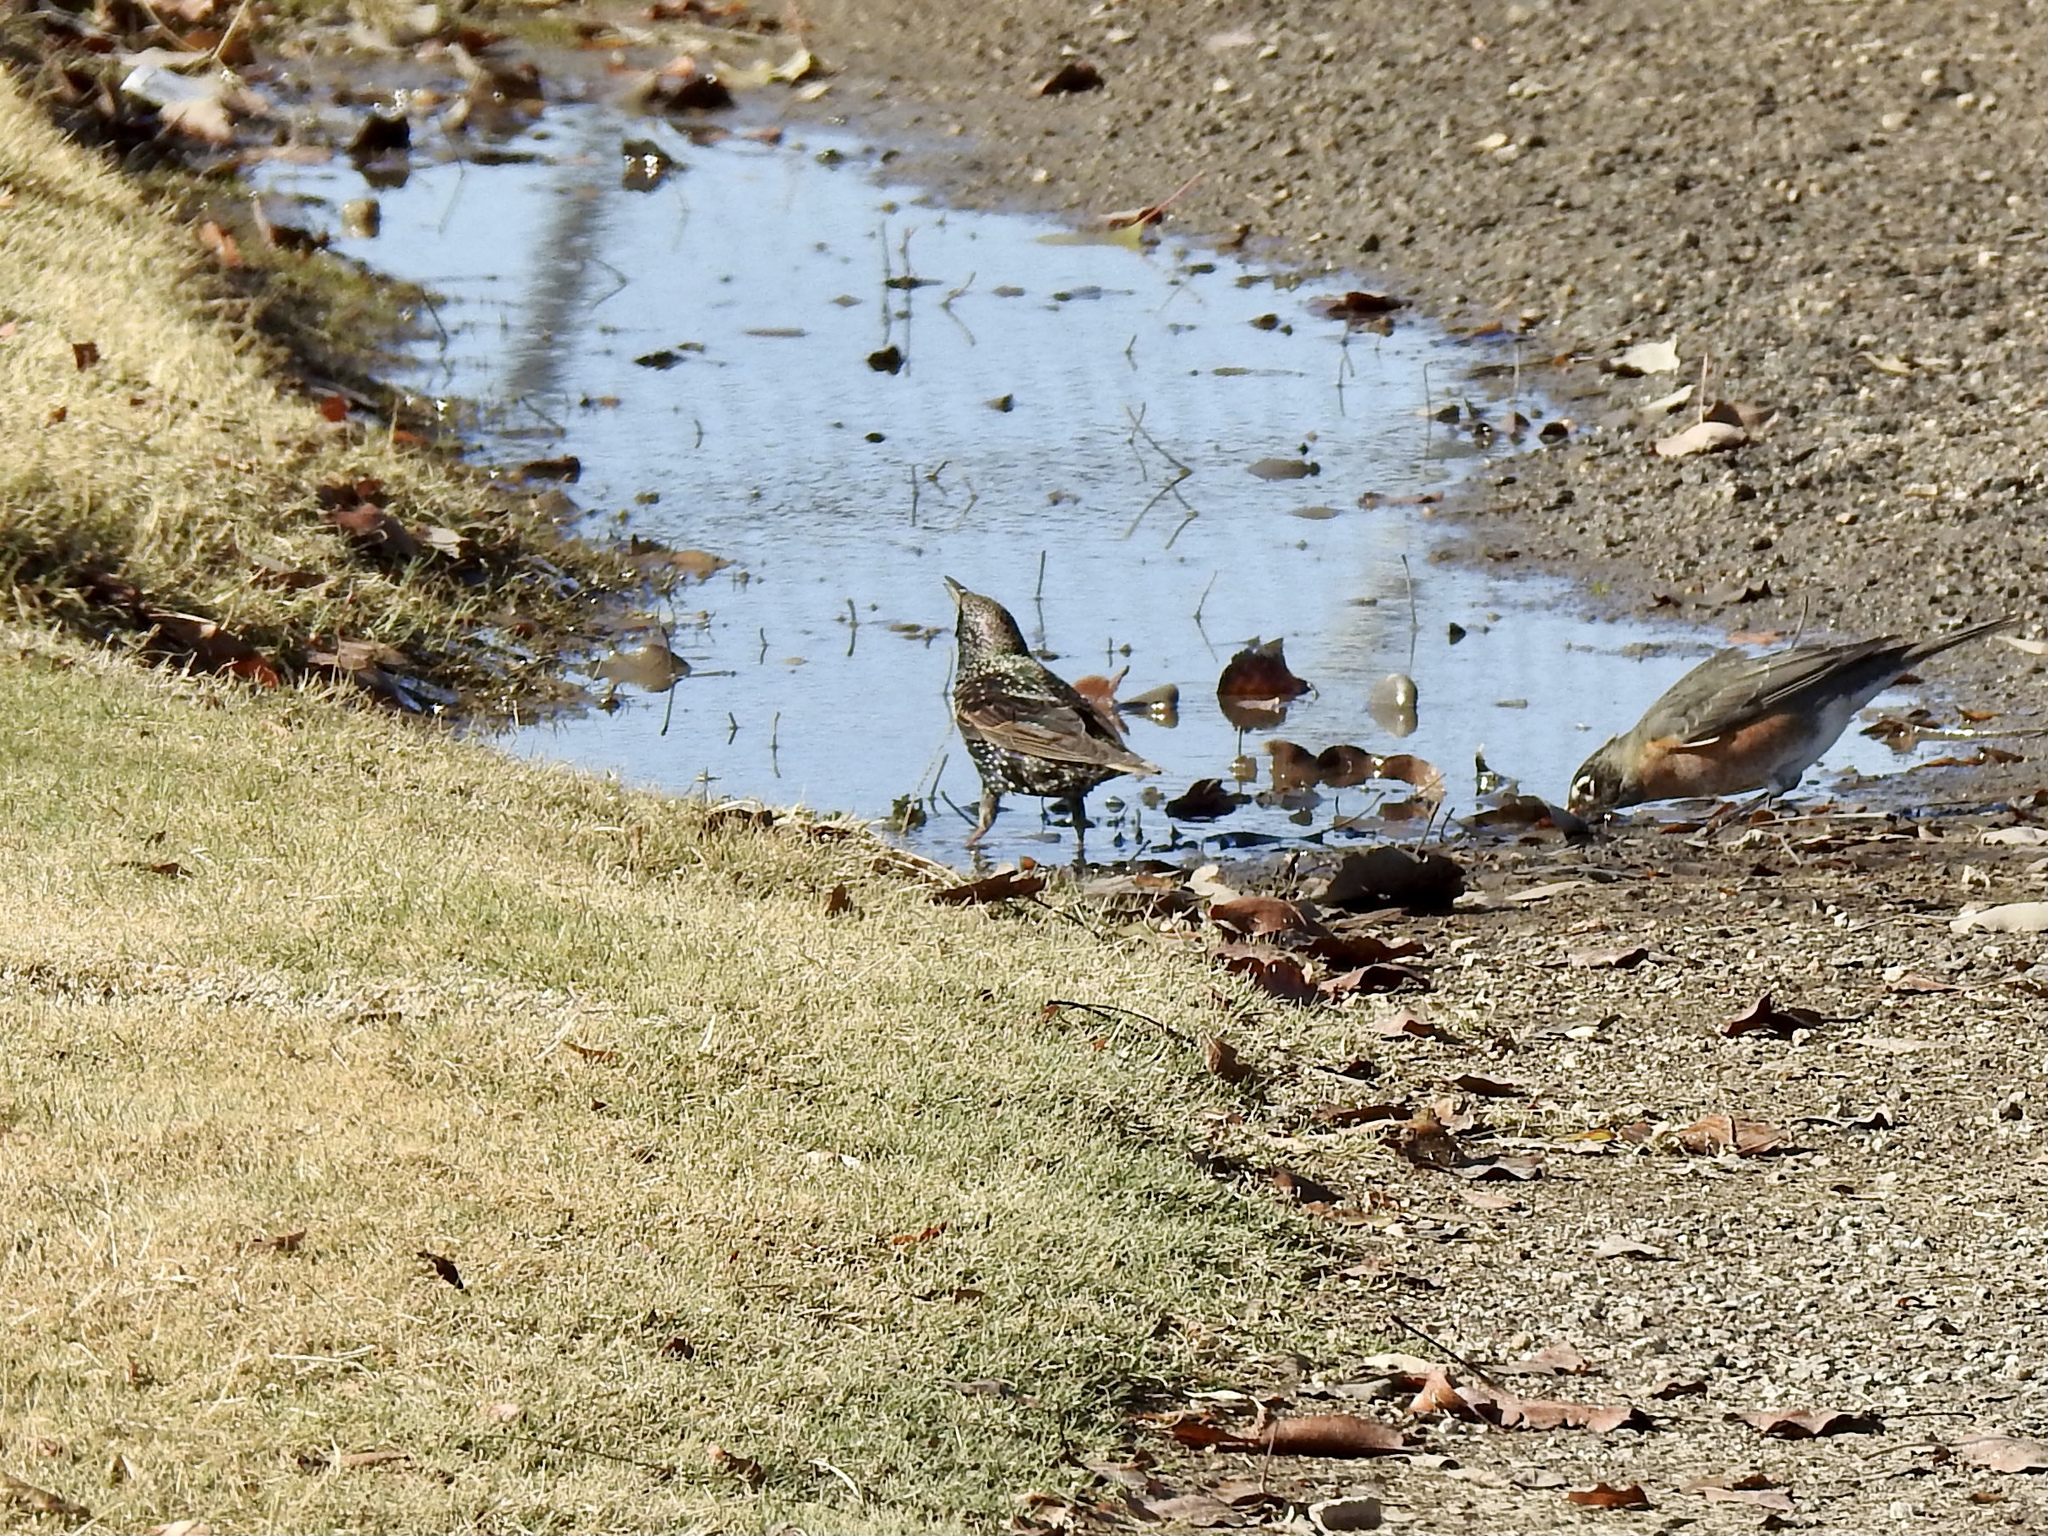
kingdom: Animalia
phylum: Chordata
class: Aves
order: Passeriformes
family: Sturnidae
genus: Sturnus
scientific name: Sturnus vulgaris
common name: Common starling
